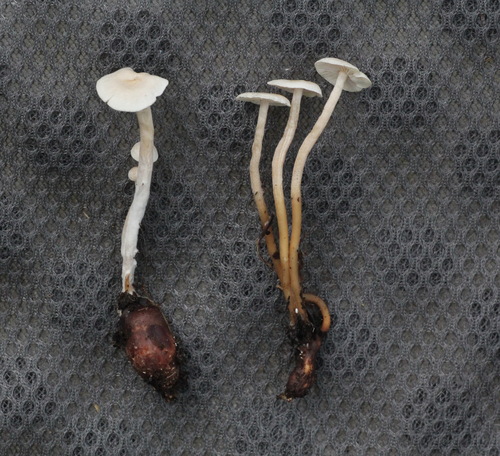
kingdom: Fungi
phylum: Basidiomycota
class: Agaricomycetes
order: Agaricales
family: Tricholomataceae
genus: Collybia
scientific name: Collybia cookei
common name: Splitpea shanklet
